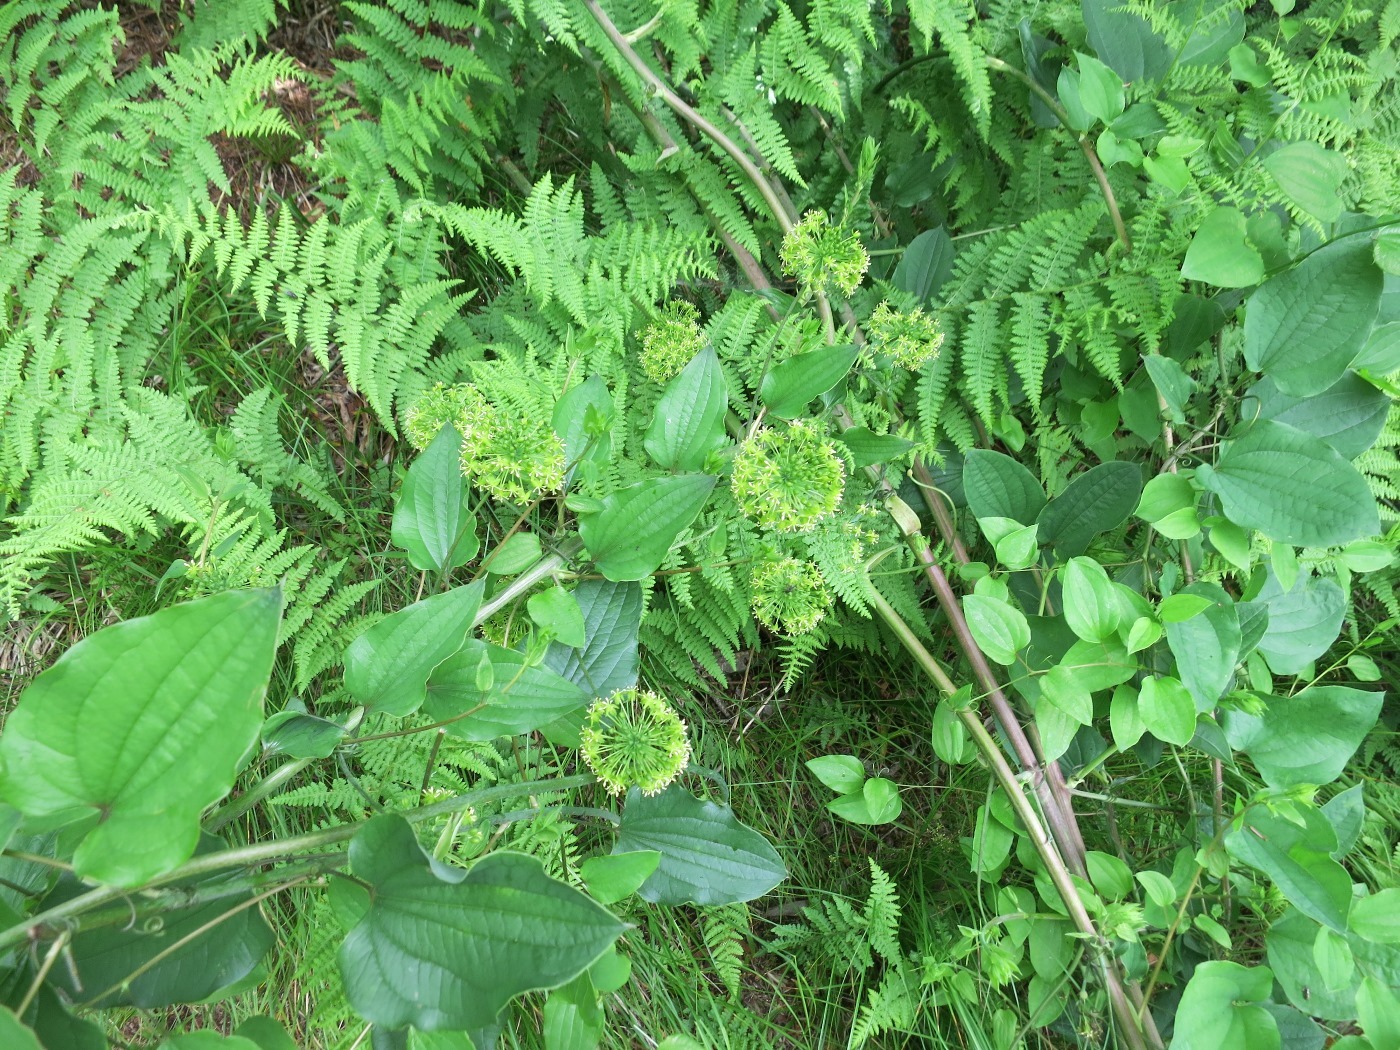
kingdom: Plantae
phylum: Tracheophyta
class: Liliopsida
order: Liliales
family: Smilacaceae
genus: Smilax
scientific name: Smilax herbacea
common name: Jacob's-ladder
